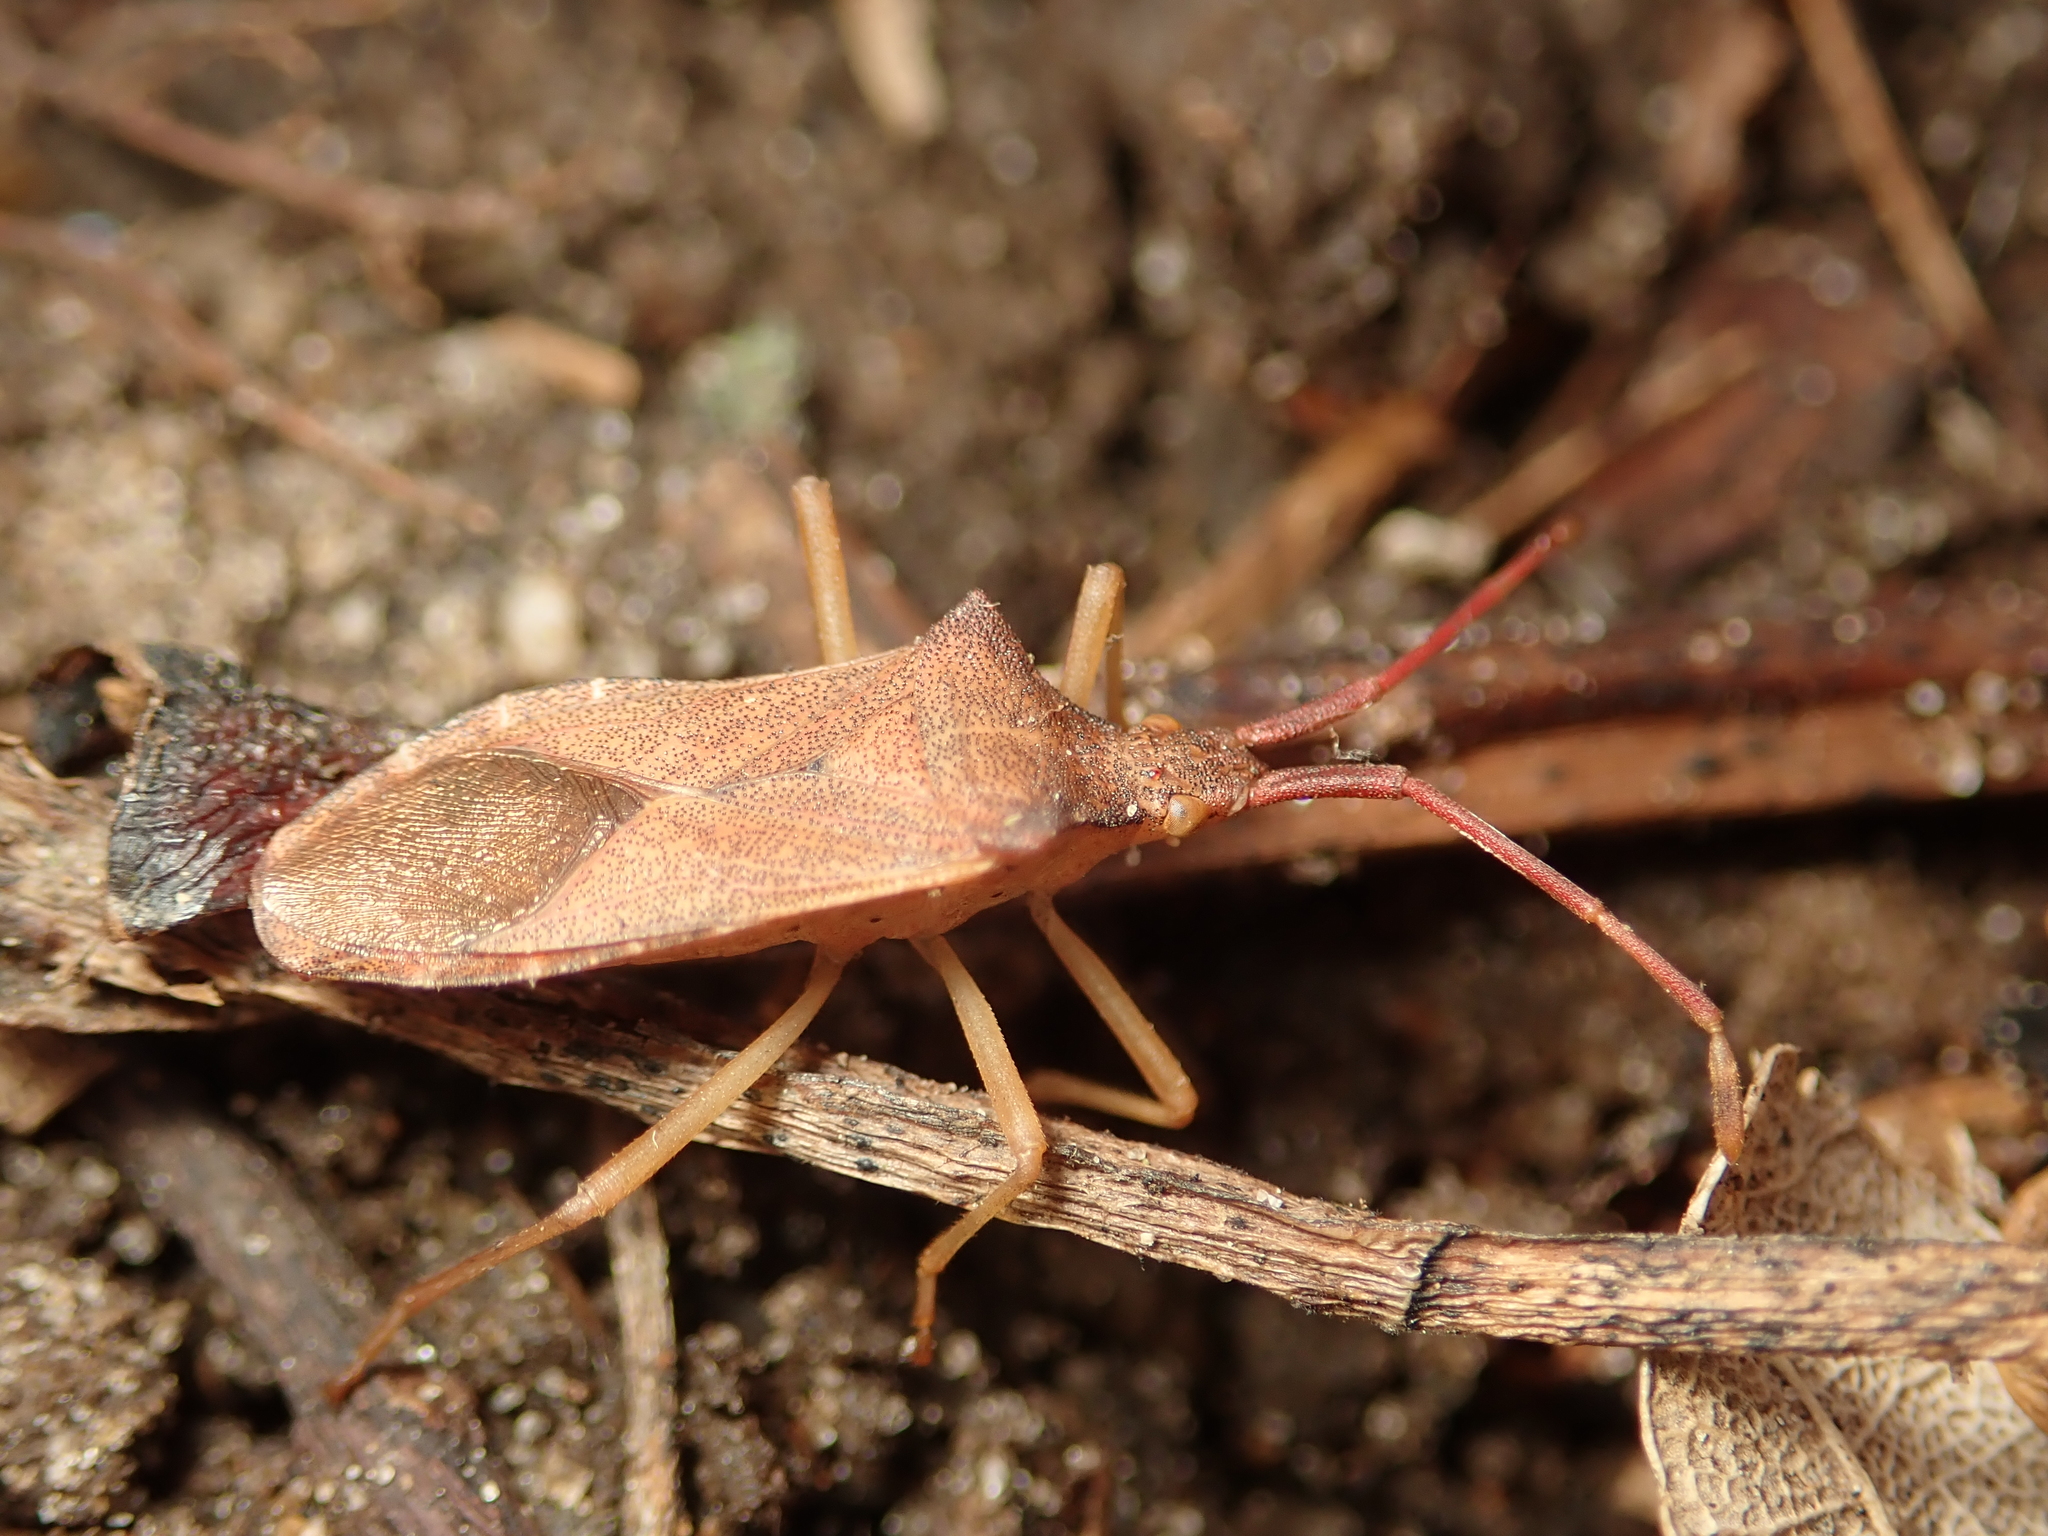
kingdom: Animalia
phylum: Arthropoda
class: Insecta
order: Hemiptera
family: Coreidae
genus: Gonocerus
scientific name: Gonocerus acuteangulatus
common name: Box bug
